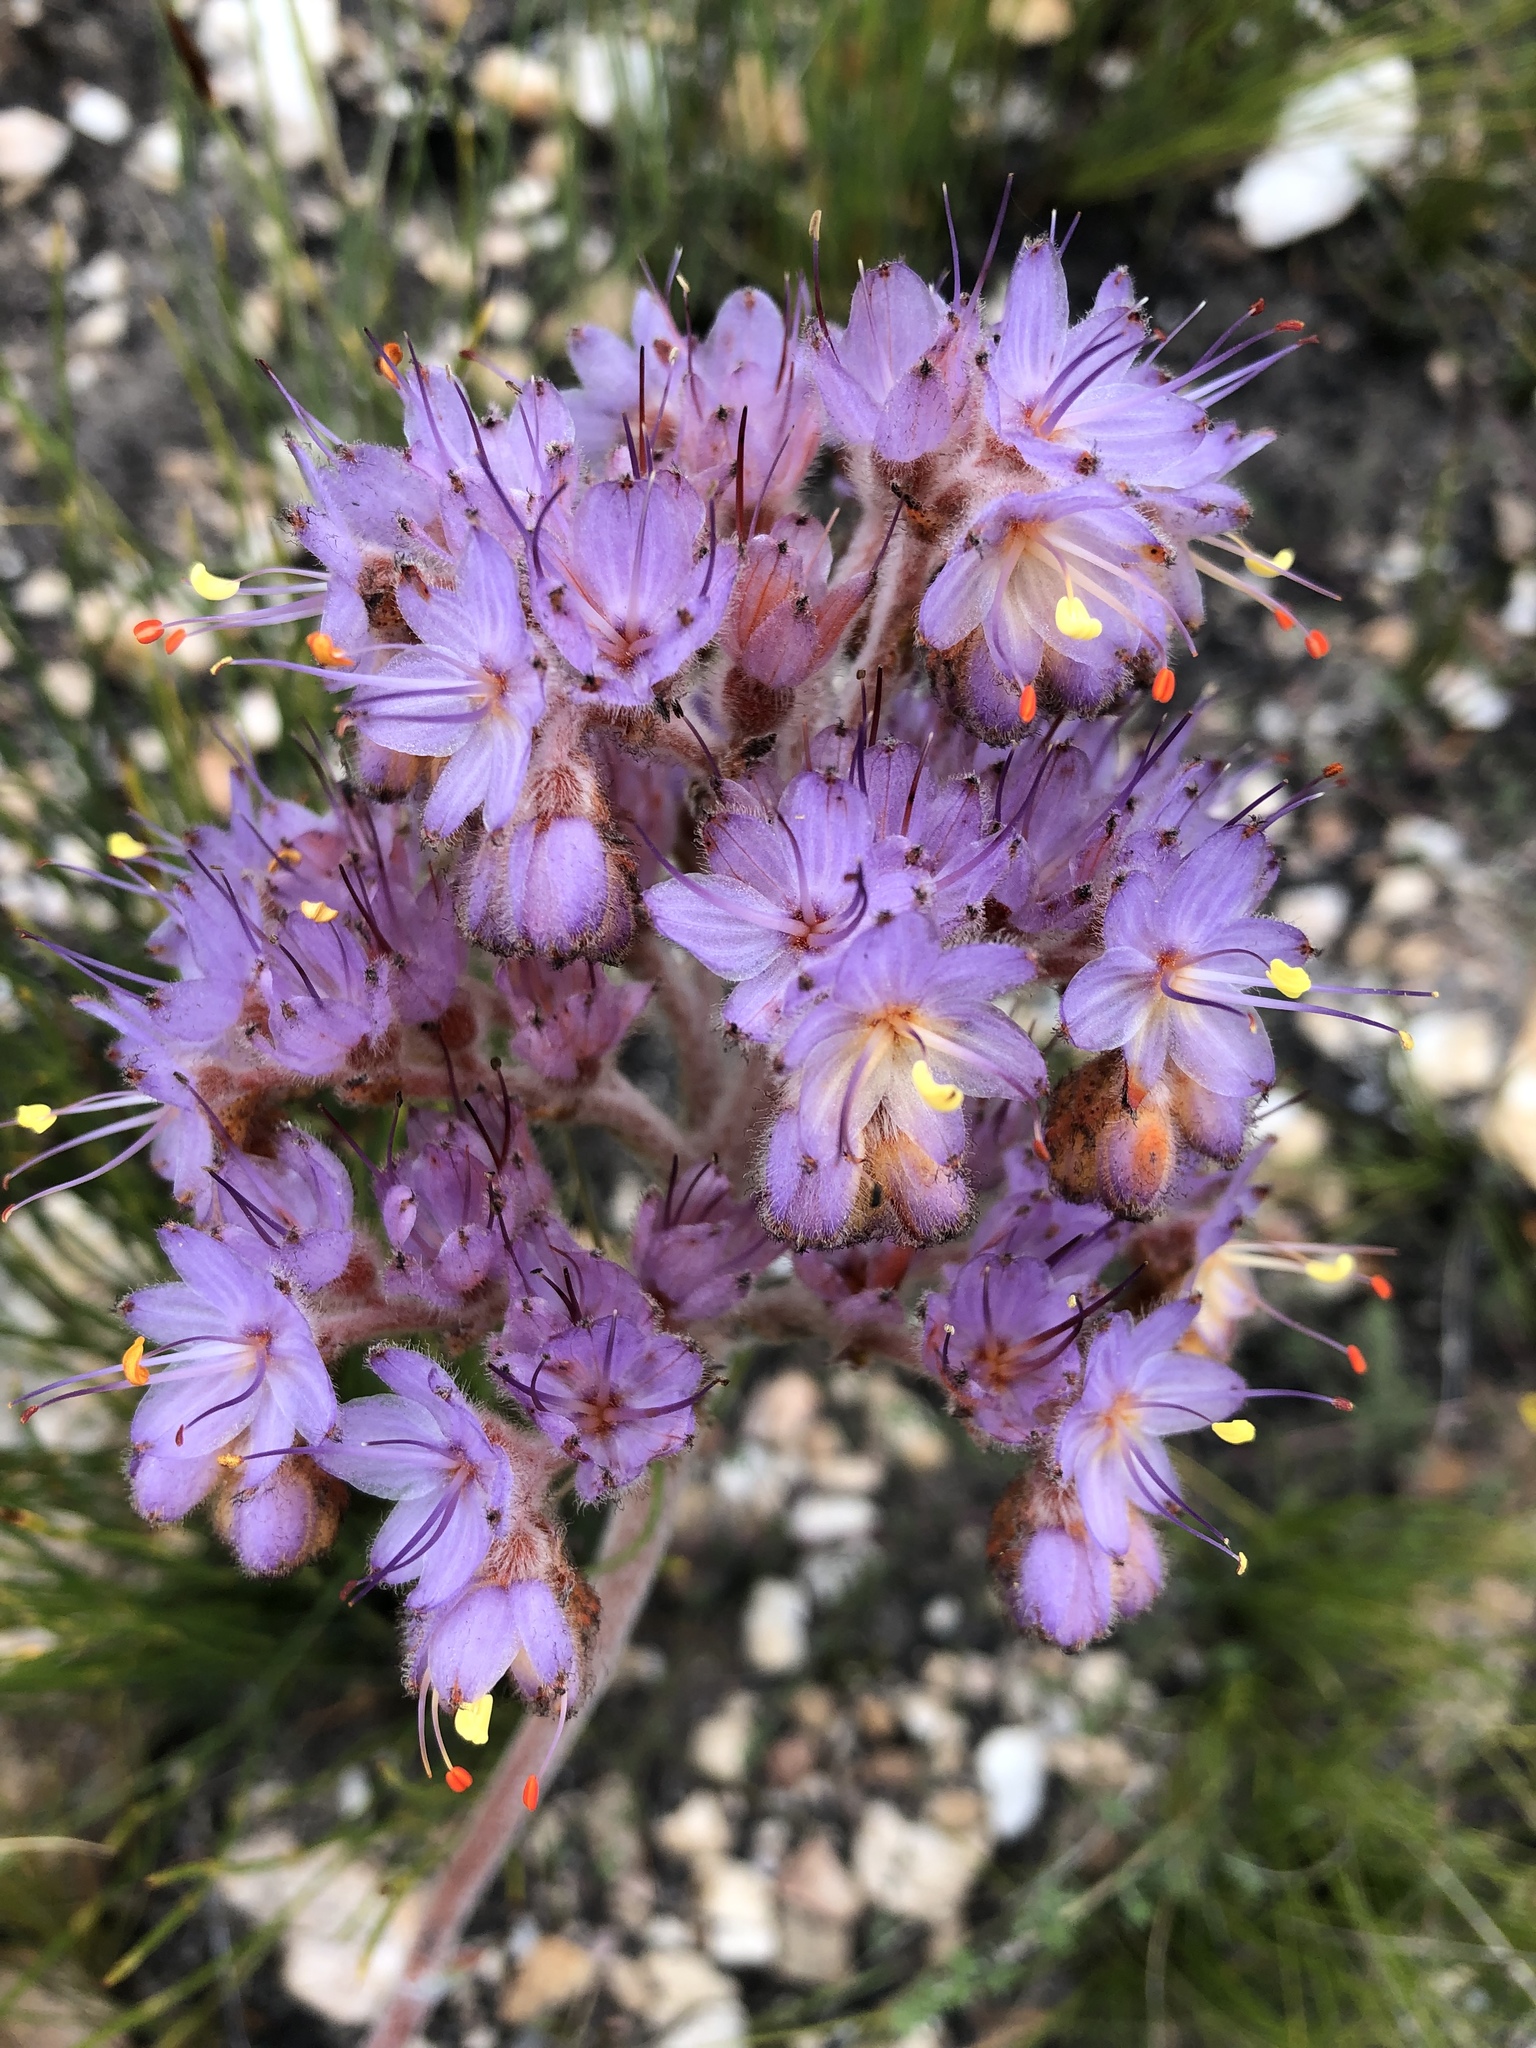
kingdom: Plantae
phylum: Tracheophyta
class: Liliopsida
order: Commelinales
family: Haemodoraceae
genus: Dilatris
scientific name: Dilatris ixioides
